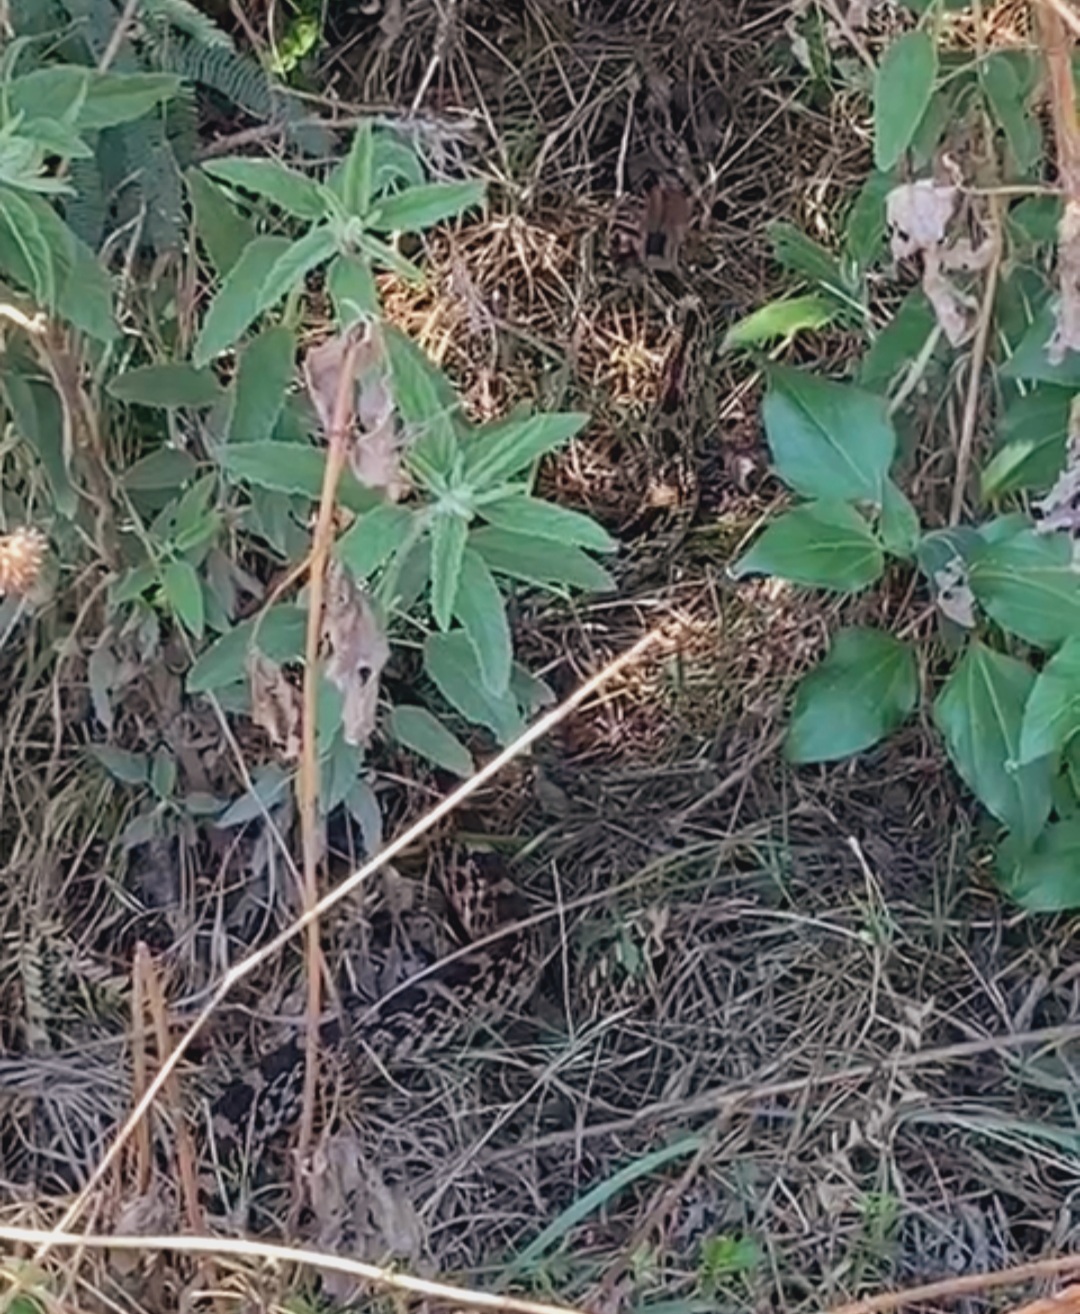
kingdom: Animalia
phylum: Chordata
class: Squamata
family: Colubridae
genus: Pituophis
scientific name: Pituophis deppei
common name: Mexican bull snake
